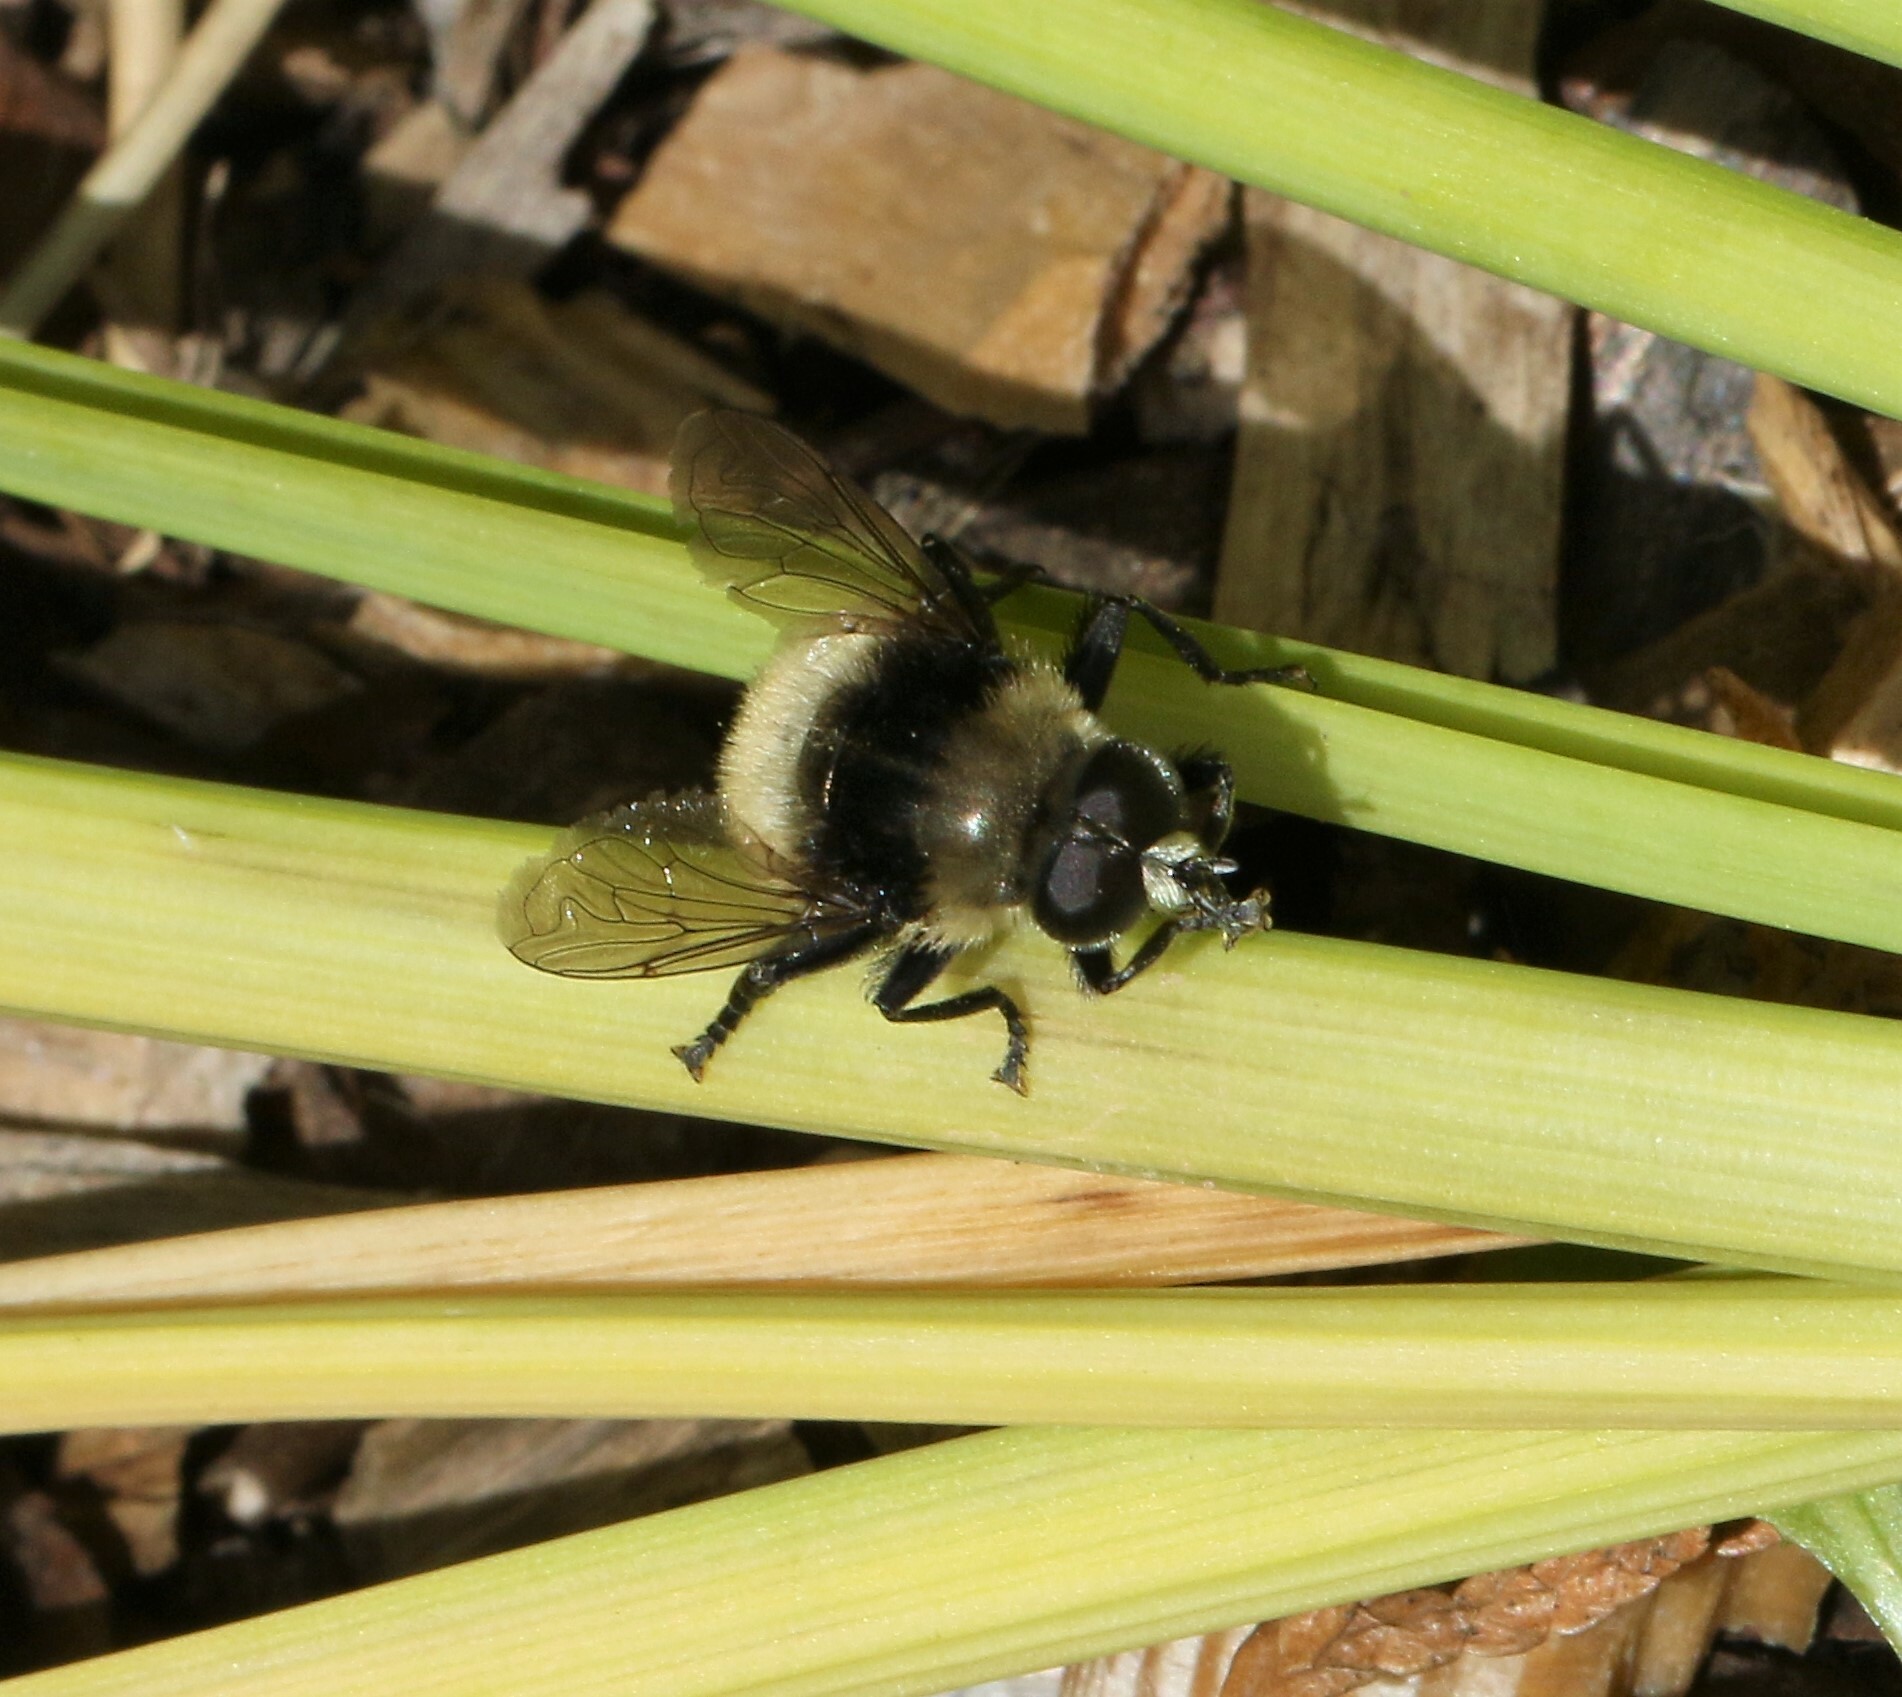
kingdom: Animalia
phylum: Arthropoda
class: Insecta
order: Diptera
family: Syrphidae
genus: Merodon
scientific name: Merodon equestris
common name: Greater bulb-fly
